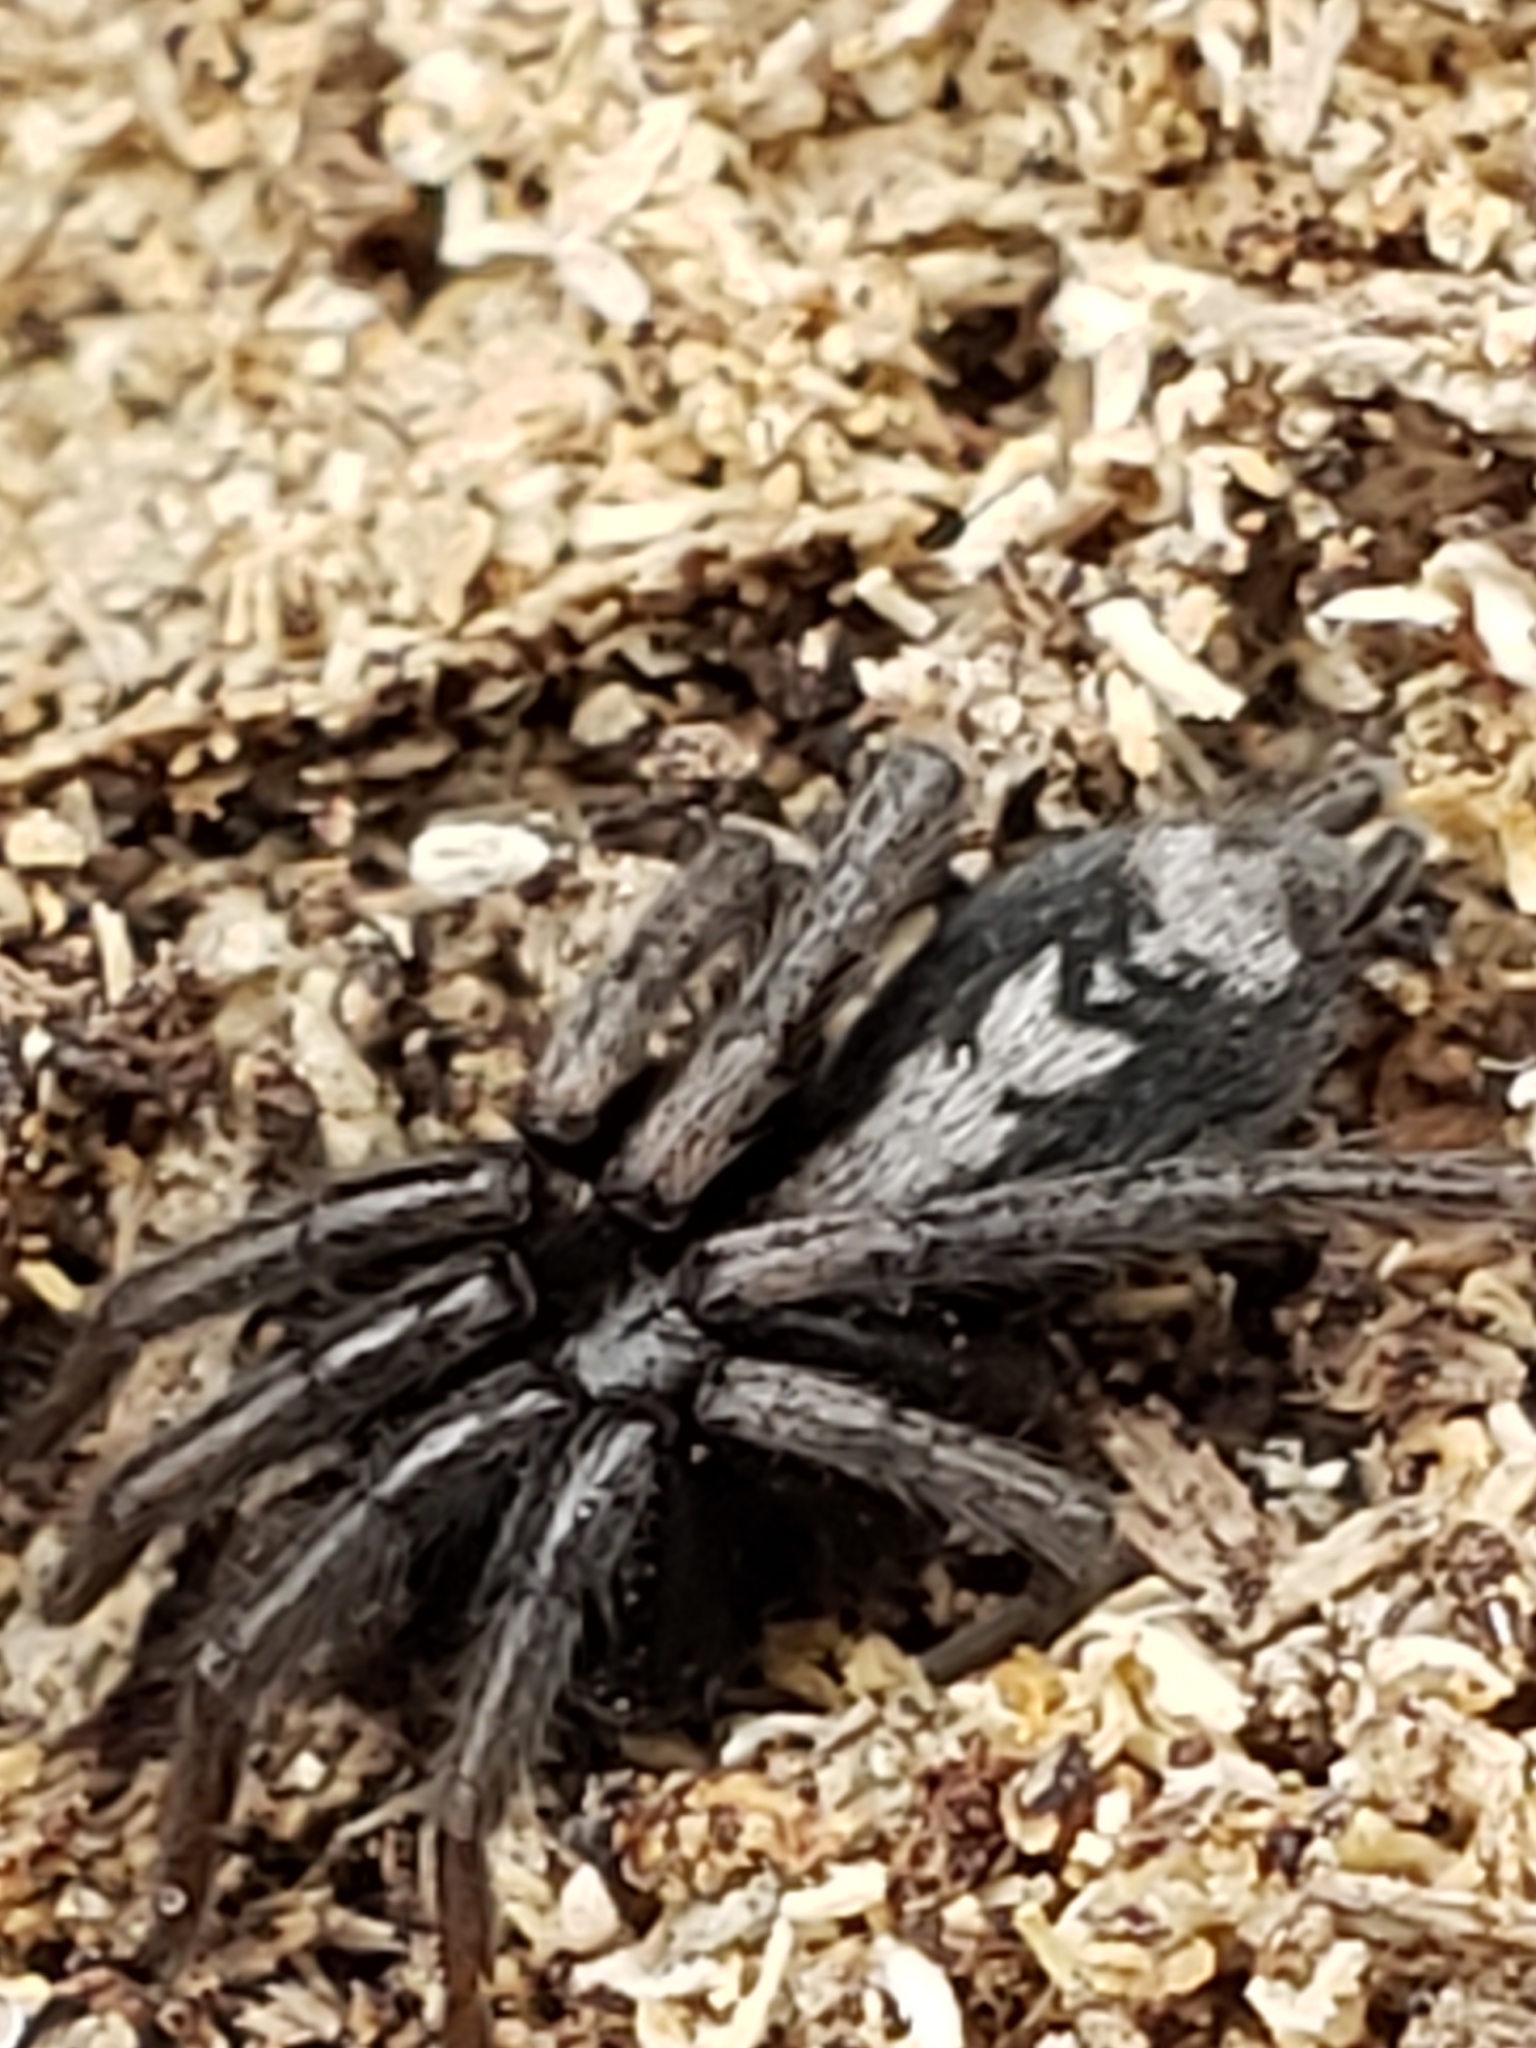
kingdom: Animalia
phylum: Arthropoda
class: Arachnida
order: Araneae
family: Gnaphosidae
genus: Herpyllus
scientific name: Herpyllus ecclesiasticus
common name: Eastern parson spider
